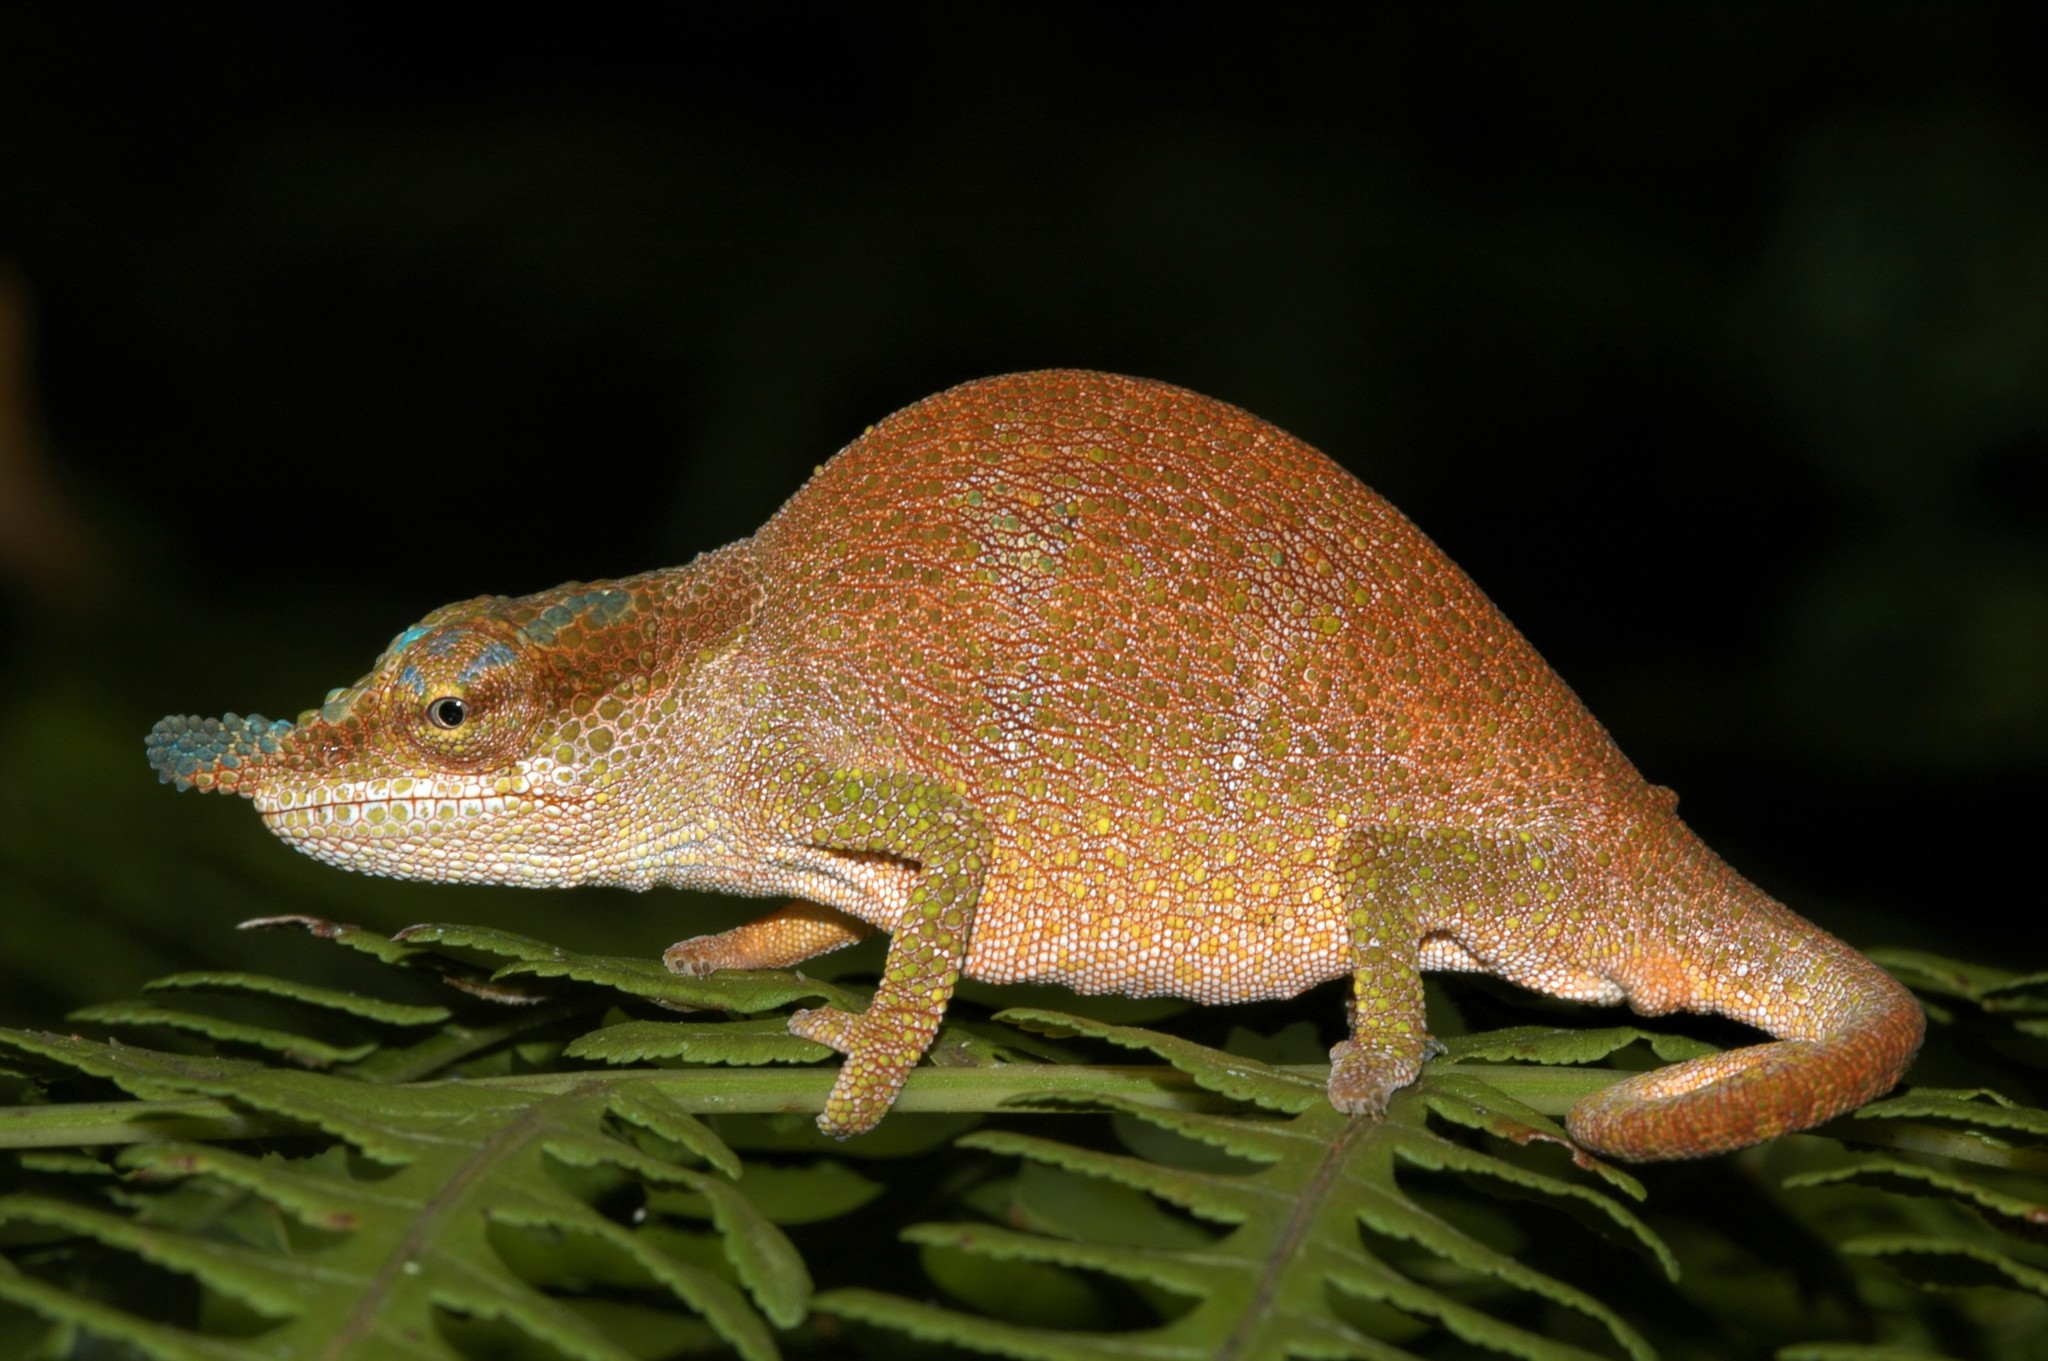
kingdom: Animalia
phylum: Chordata
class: Squamata
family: Chamaeleonidae
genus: Calumma
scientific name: Calumma linotum
